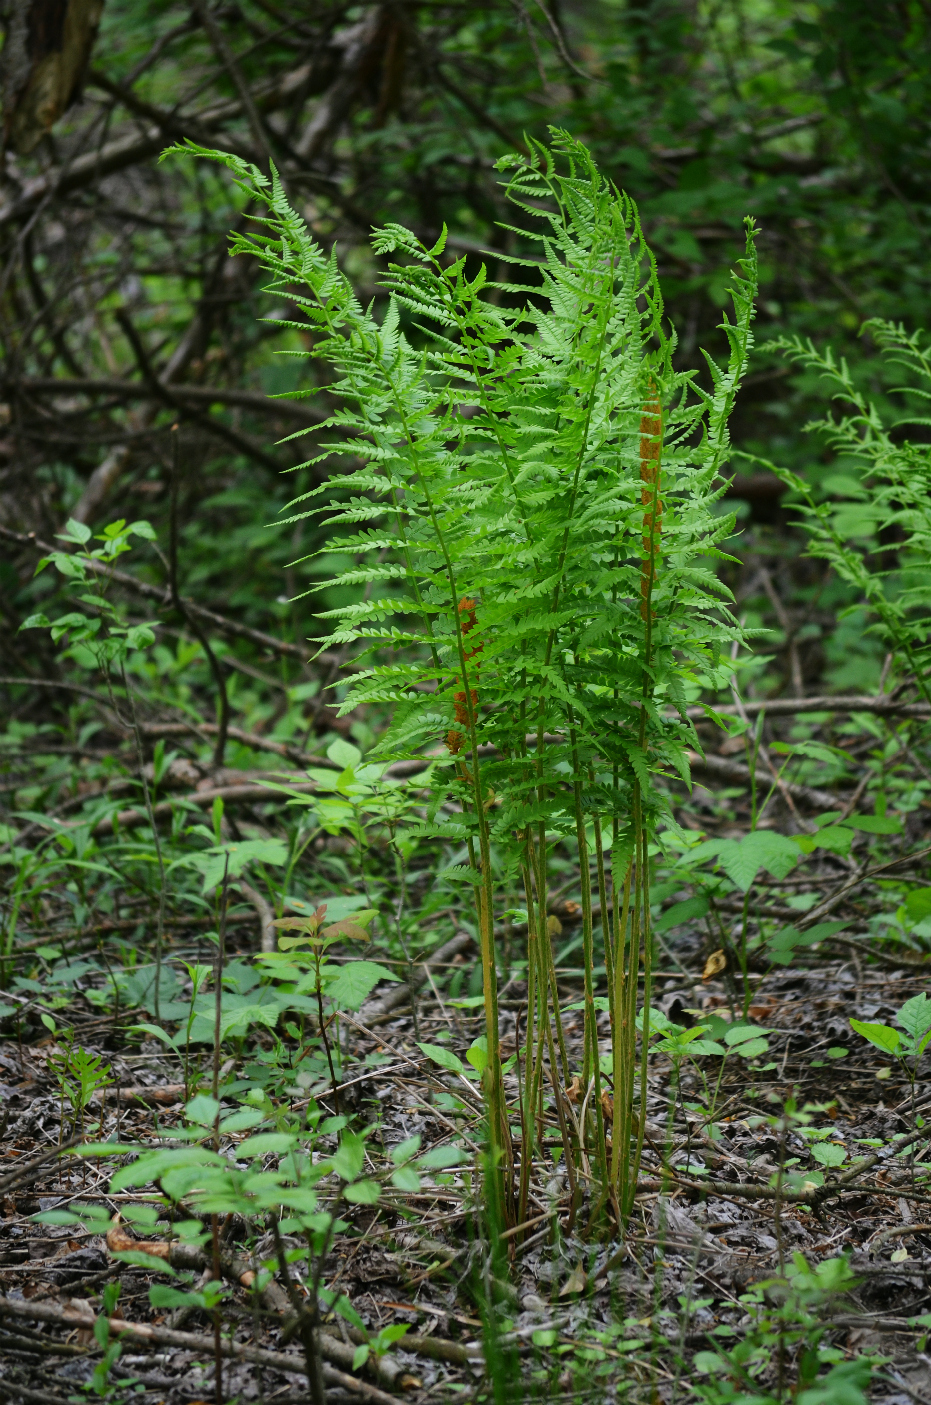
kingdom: Plantae
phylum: Tracheophyta
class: Polypodiopsida
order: Osmundales
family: Osmundaceae
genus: Osmundastrum
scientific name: Osmundastrum cinnamomeum
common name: Cinnamon fern
